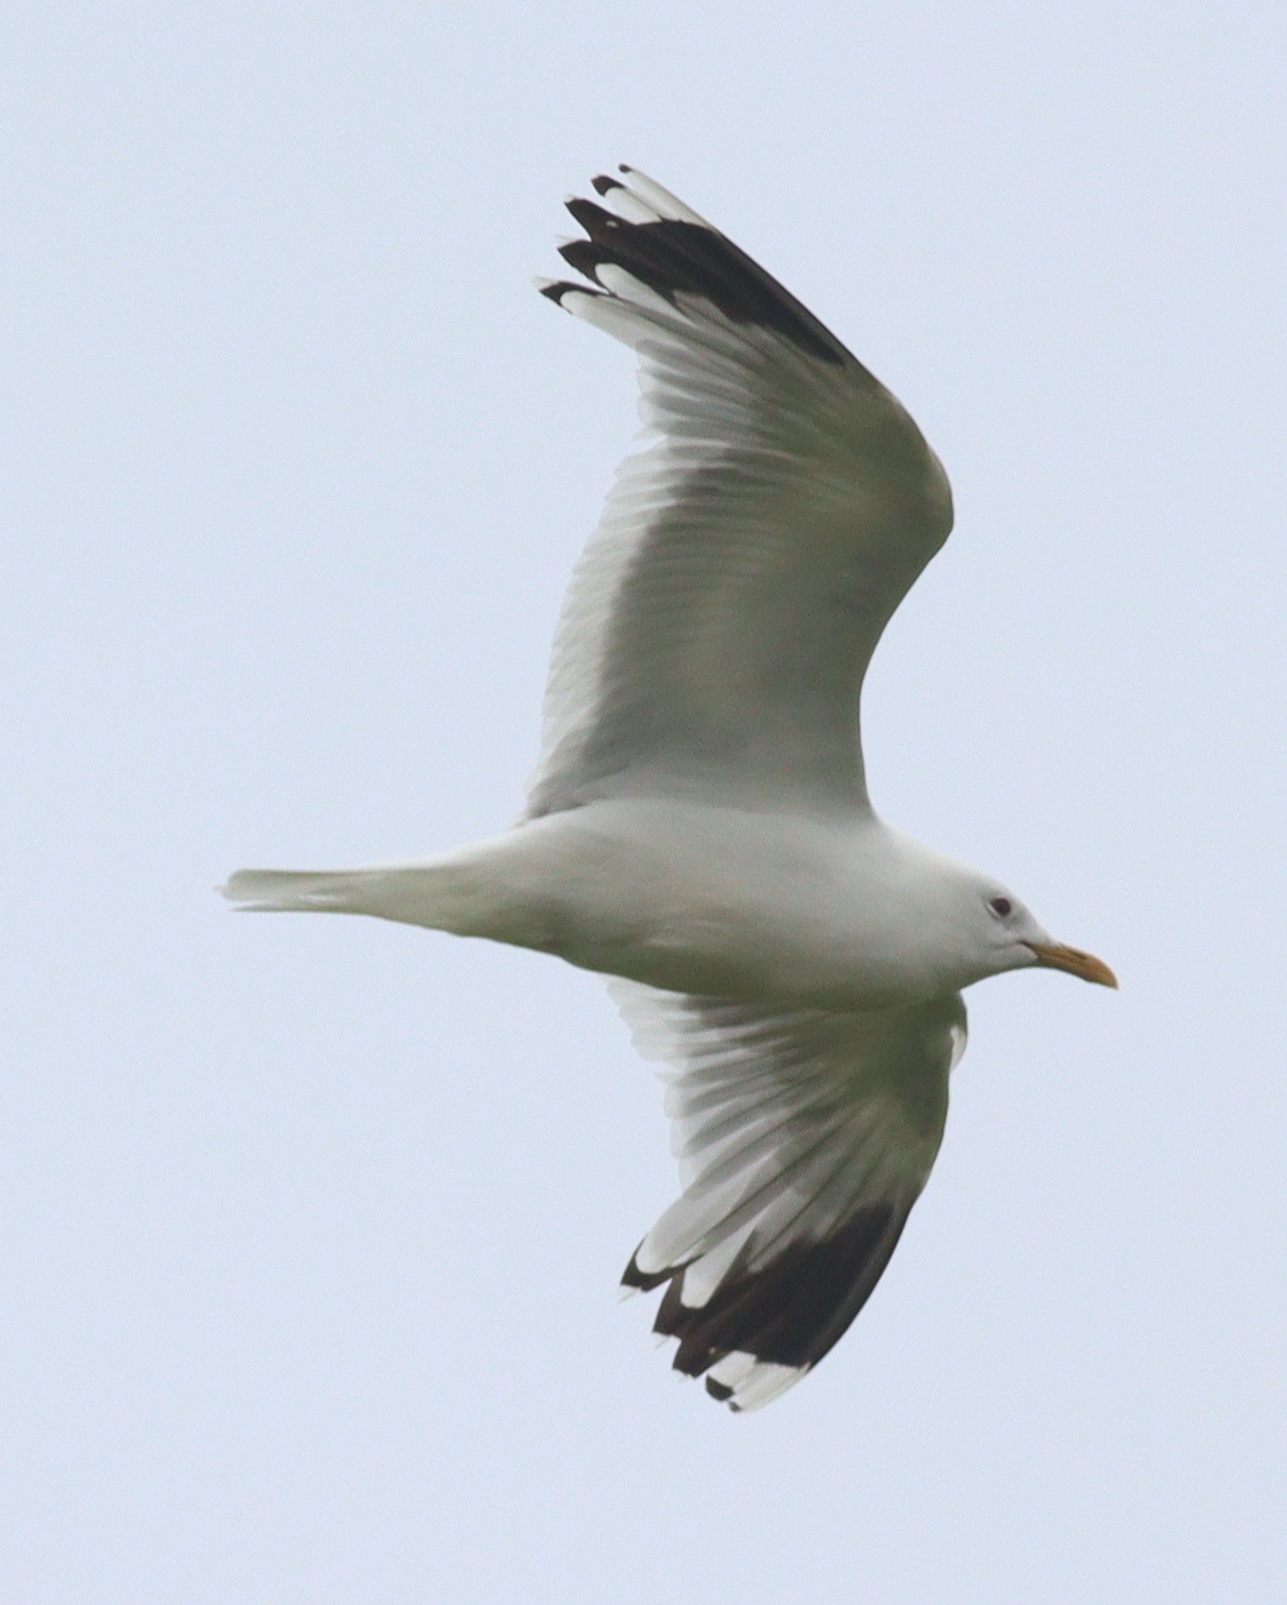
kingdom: Animalia
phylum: Chordata
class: Aves
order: Charadriiformes
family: Laridae
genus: Larus
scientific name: Larus canus
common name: Mew gull
